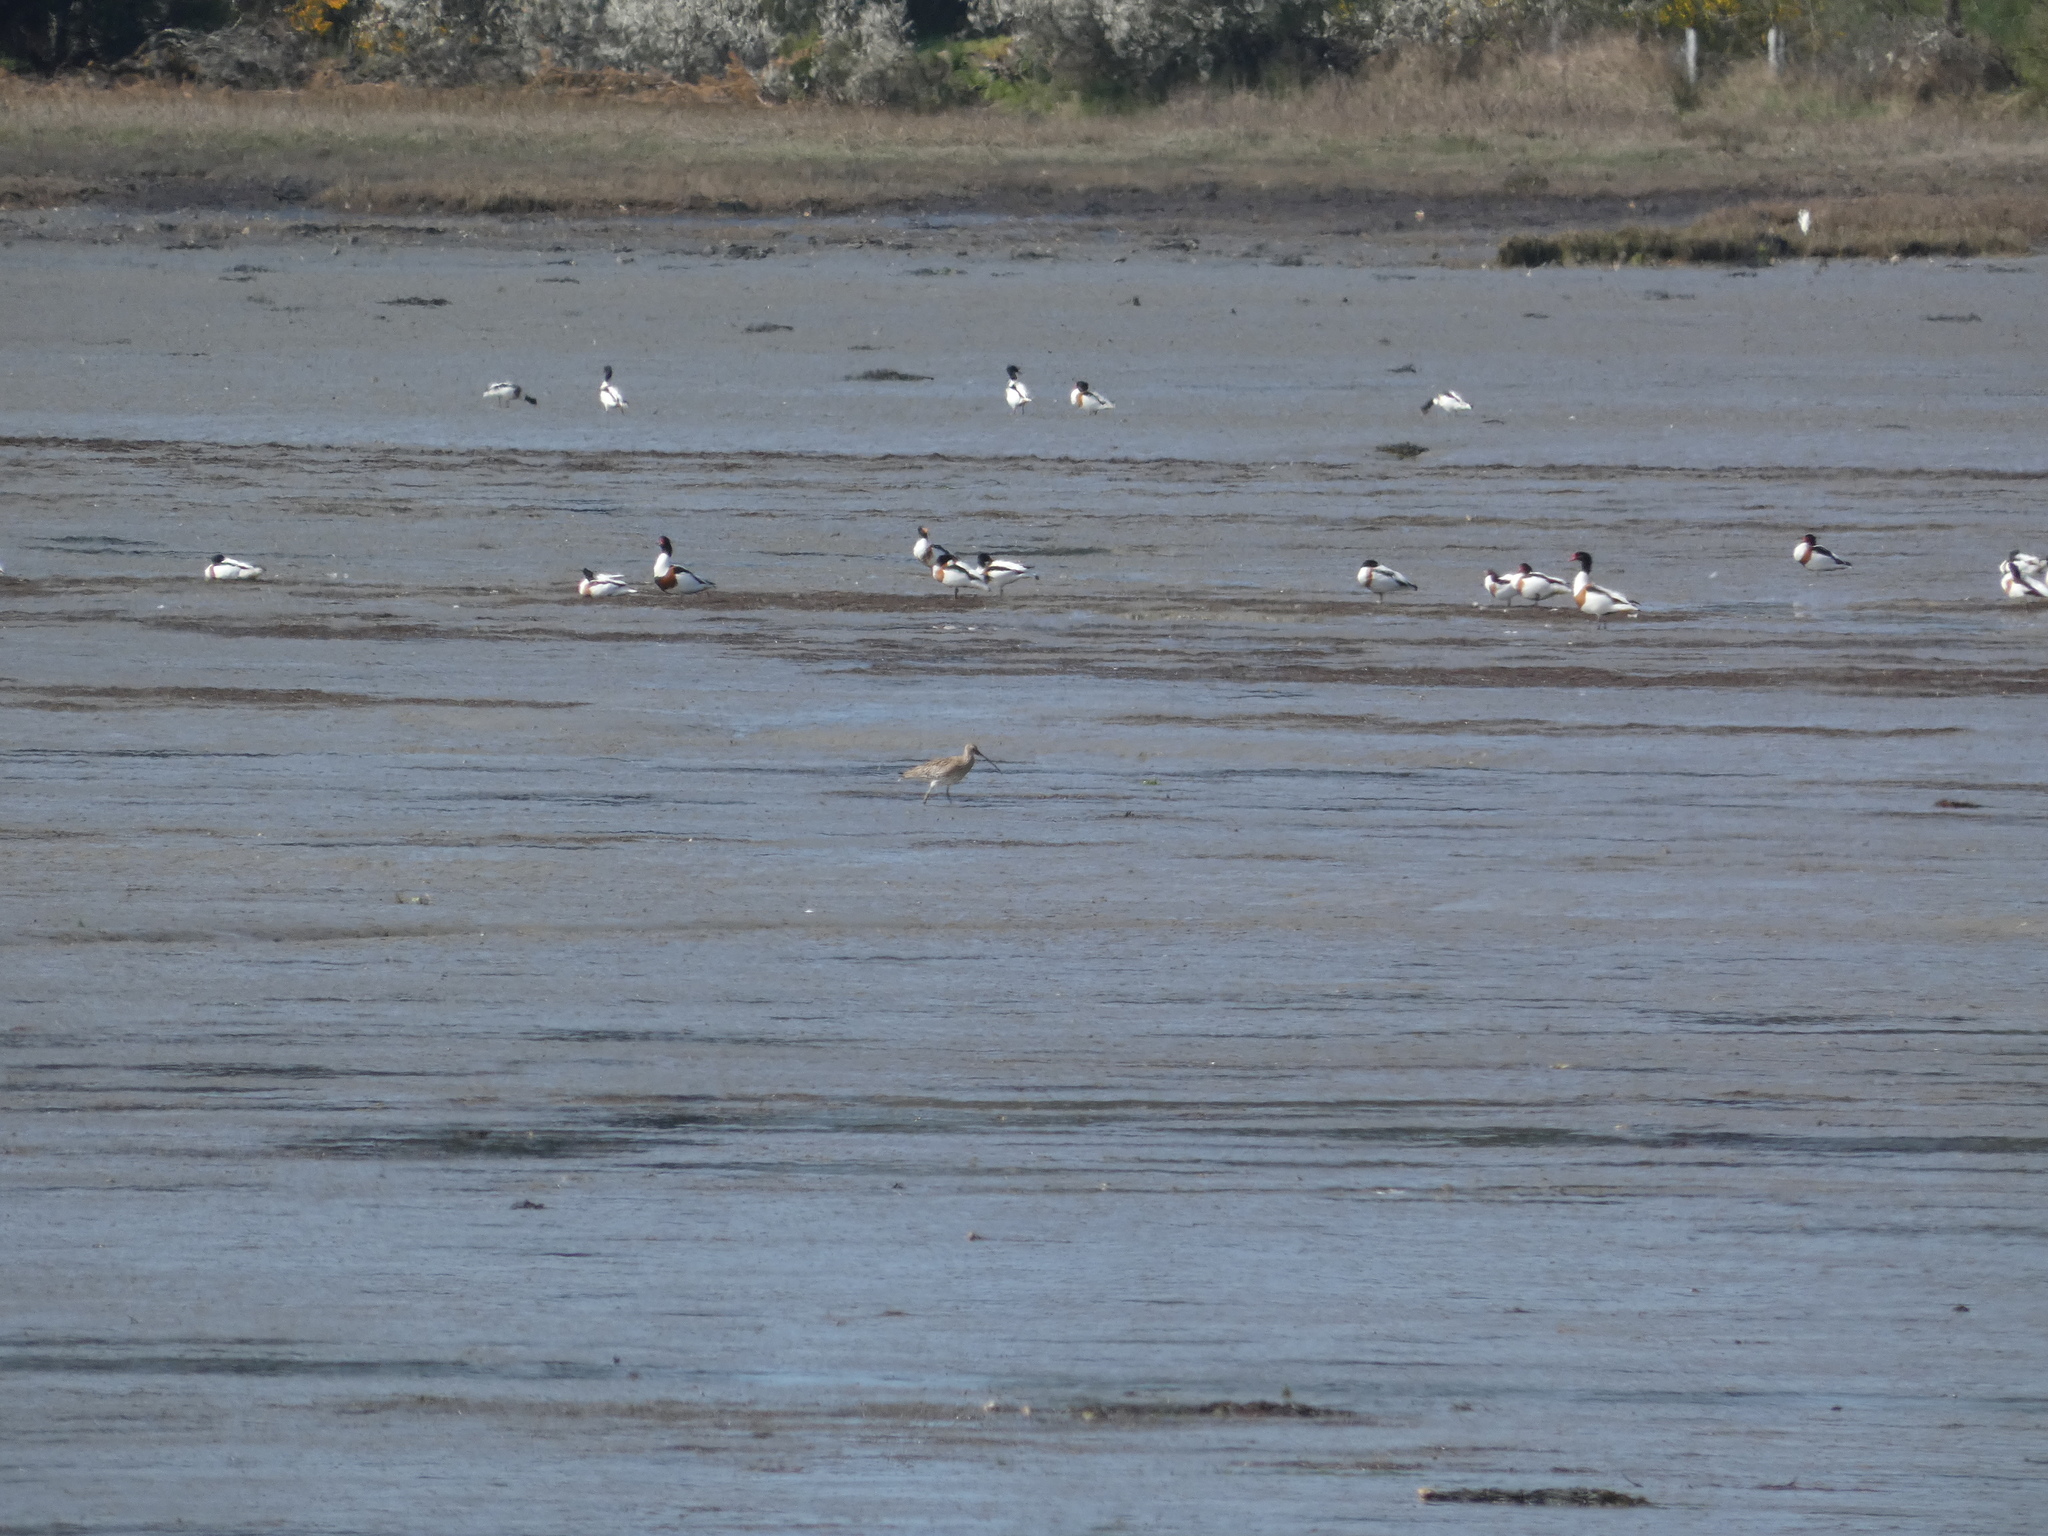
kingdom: Animalia
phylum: Chordata
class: Aves
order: Charadriiformes
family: Scolopacidae
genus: Numenius
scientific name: Numenius arquata
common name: Eurasian curlew
